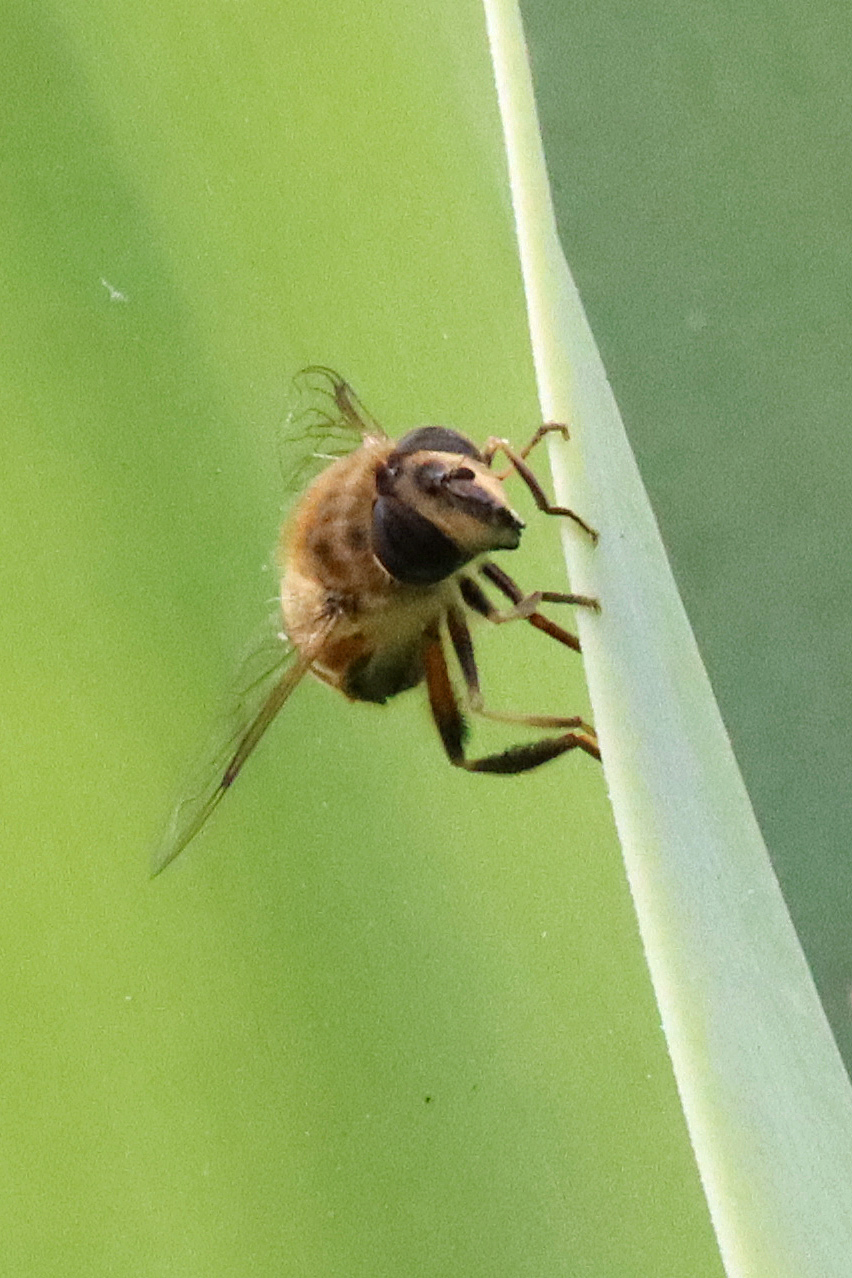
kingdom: Animalia
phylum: Arthropoda
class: Insecta
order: Diptera
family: Syrphidae
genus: Eristalis
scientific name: Eristalis tenax
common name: Drone fly
